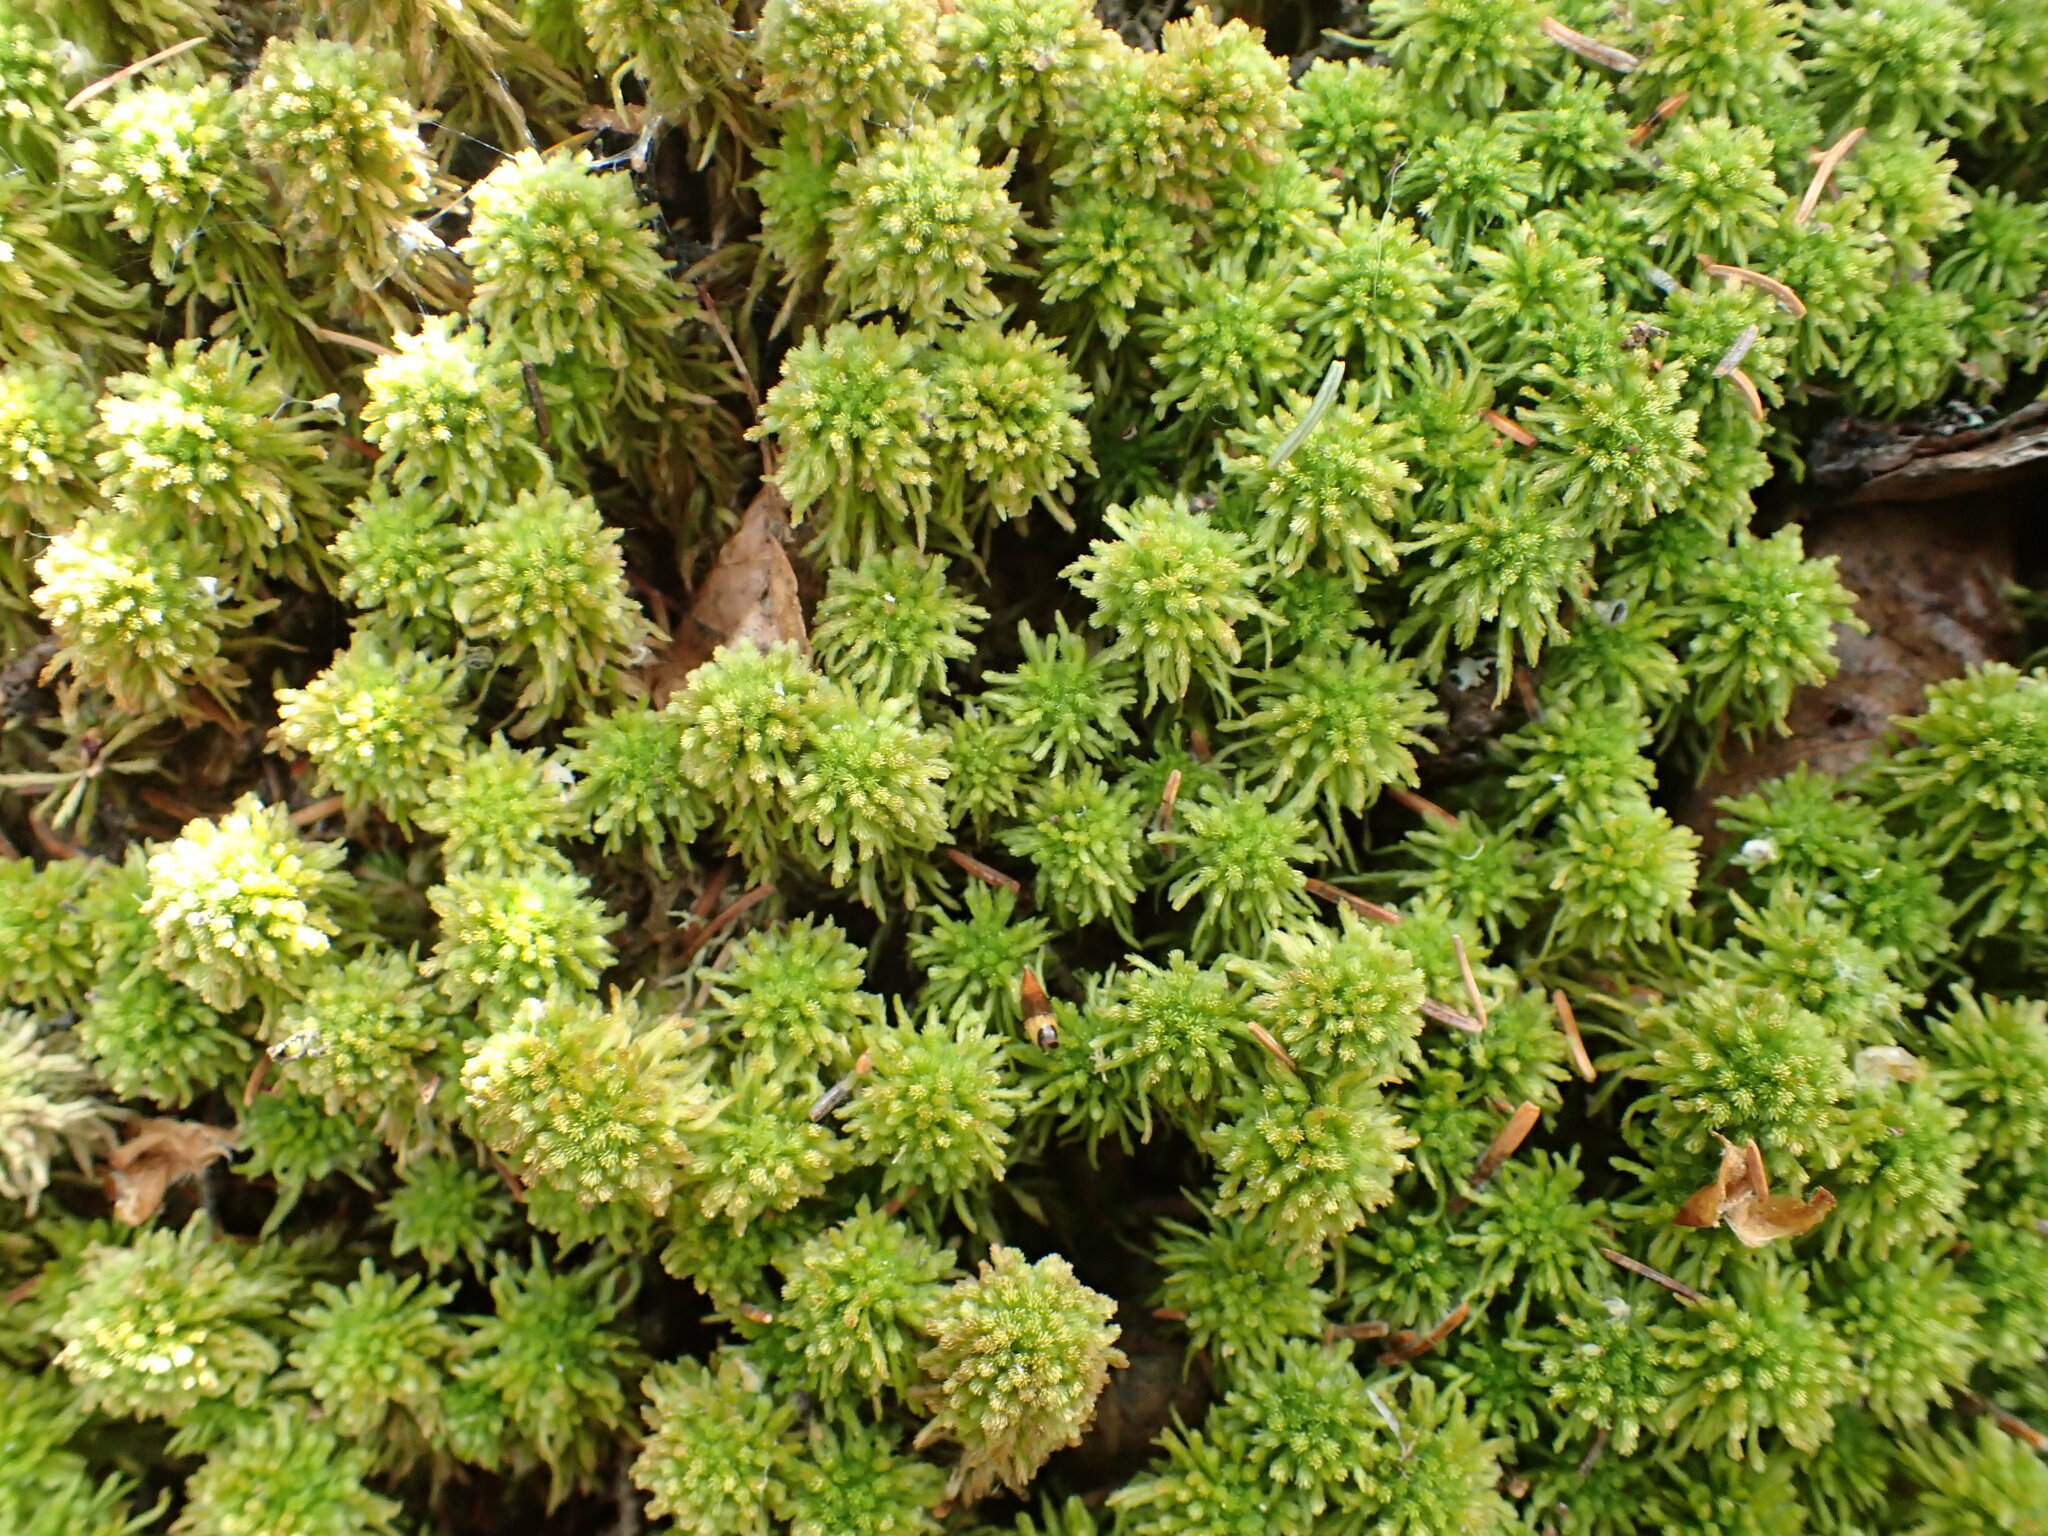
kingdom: Plantae
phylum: Bryophyta
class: Sphagnopsida
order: Sphagnales
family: Sphagnaceae
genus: Sphagnum
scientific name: Sphagnum wulfianum
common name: Wulf's peat moss
